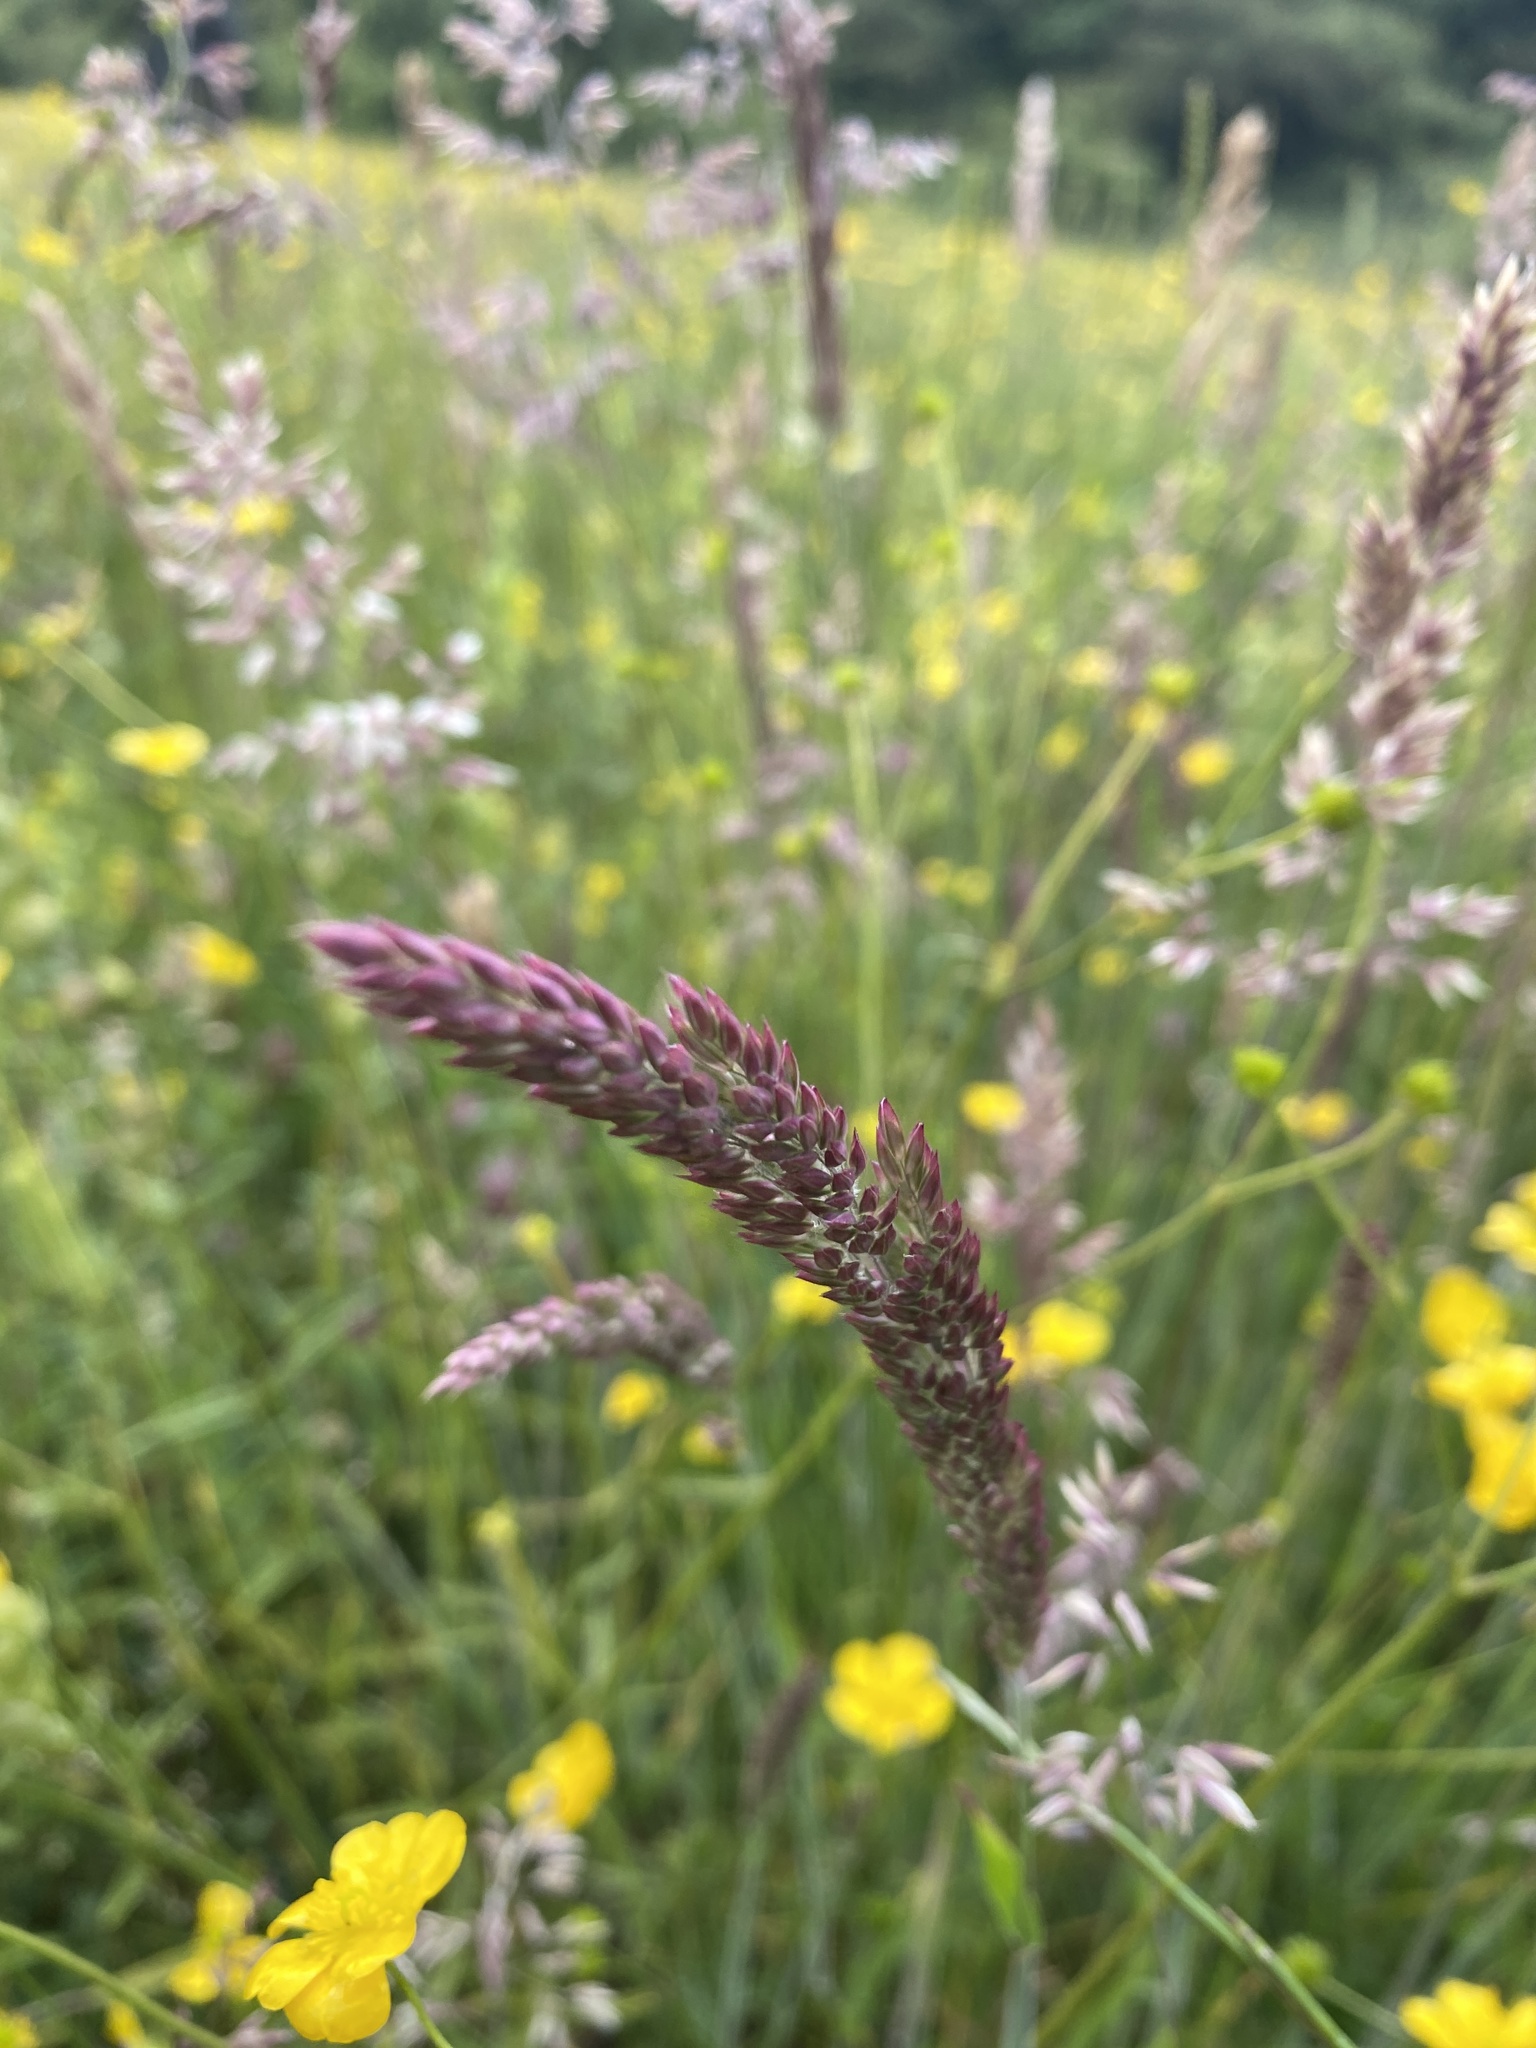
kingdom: Plantae
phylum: Tracheophyta
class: Liliopsida
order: Poales
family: Poaceae
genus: Holcus
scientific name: Holcus lanatus
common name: Yorkshire-fog
